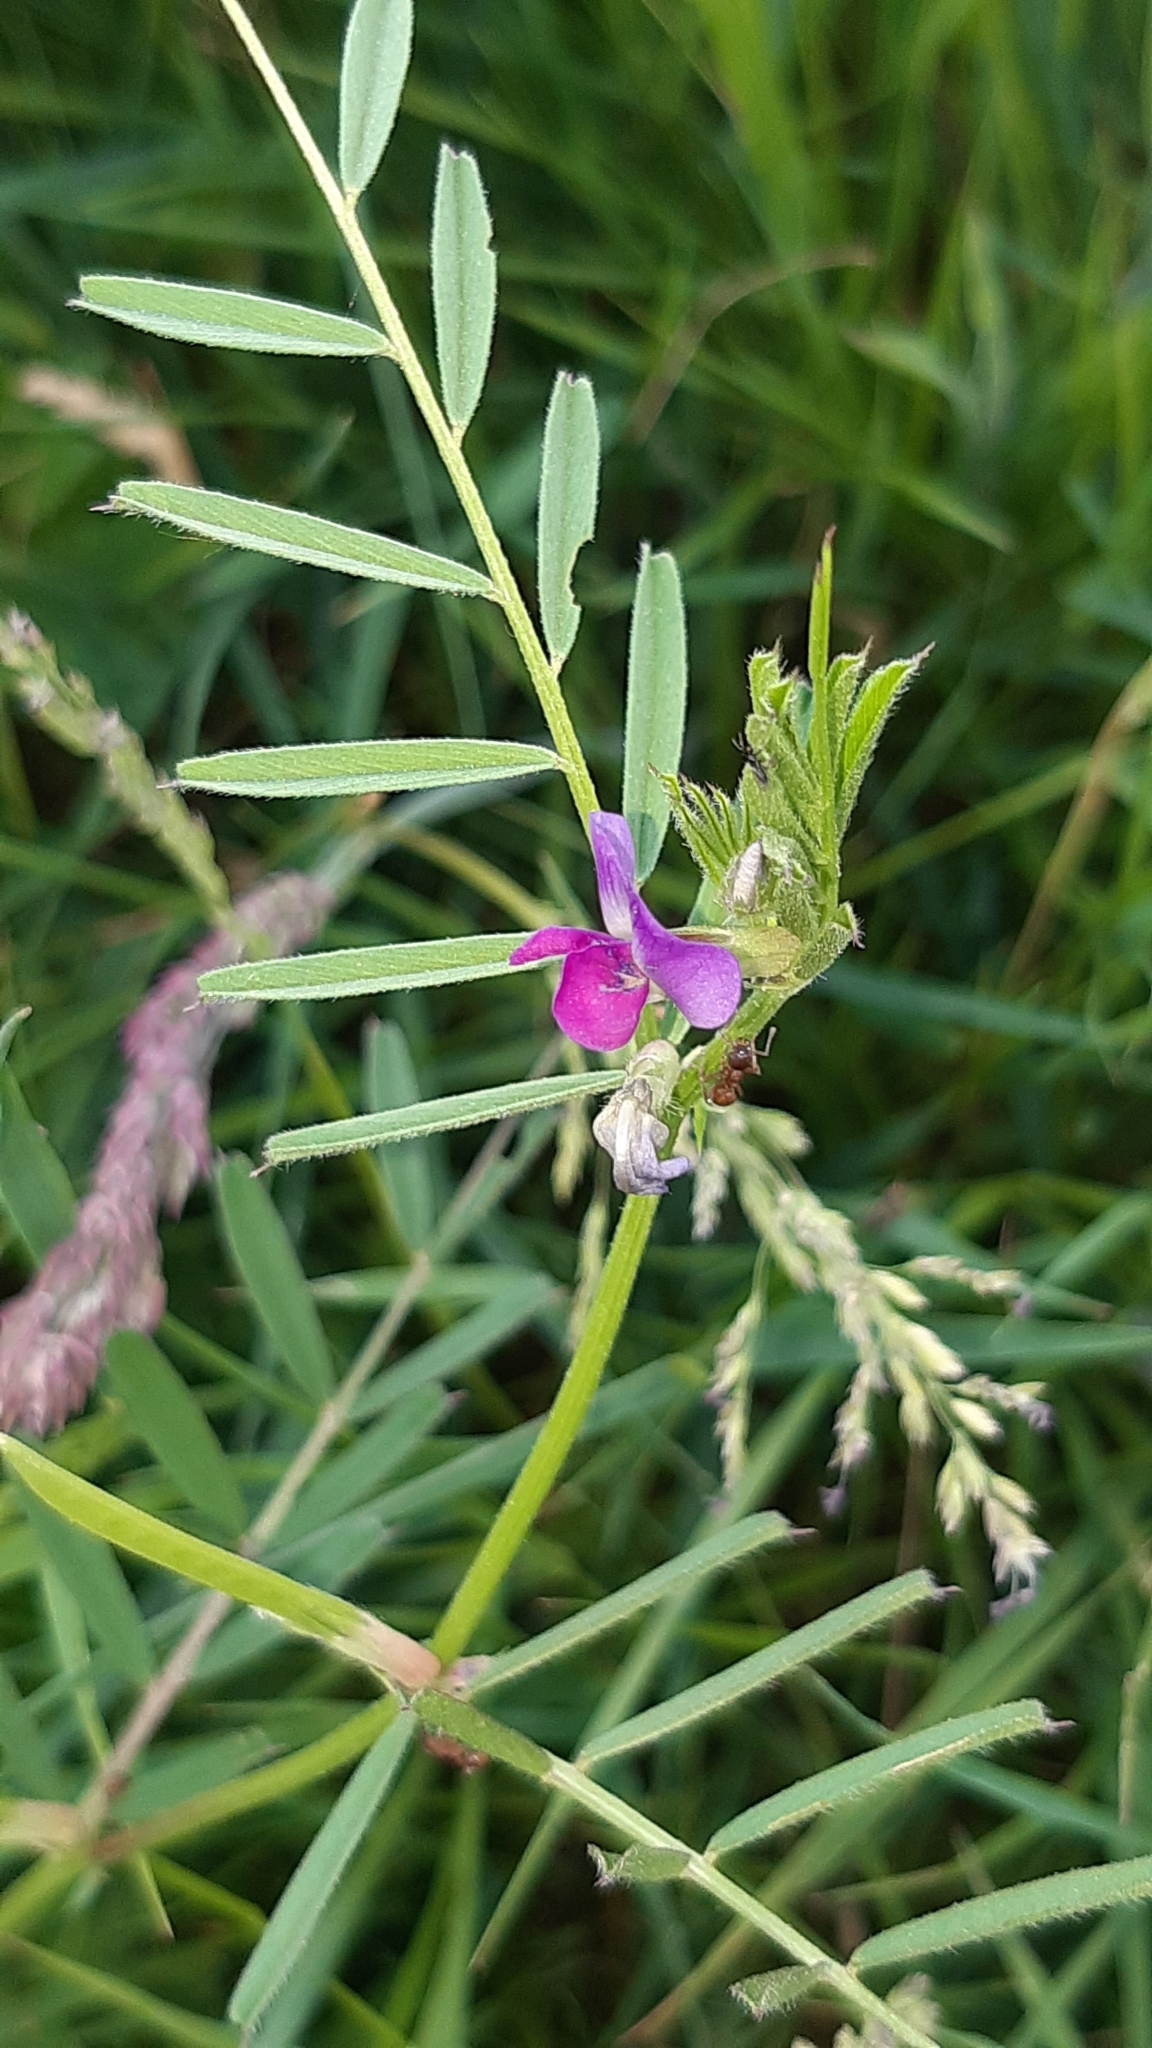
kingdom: Plantae
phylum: Tracheophyta
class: Magnoliopsida
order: Fabales
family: Fabaceae
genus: Vicia
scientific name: Vicia sativa
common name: Garden vetch
